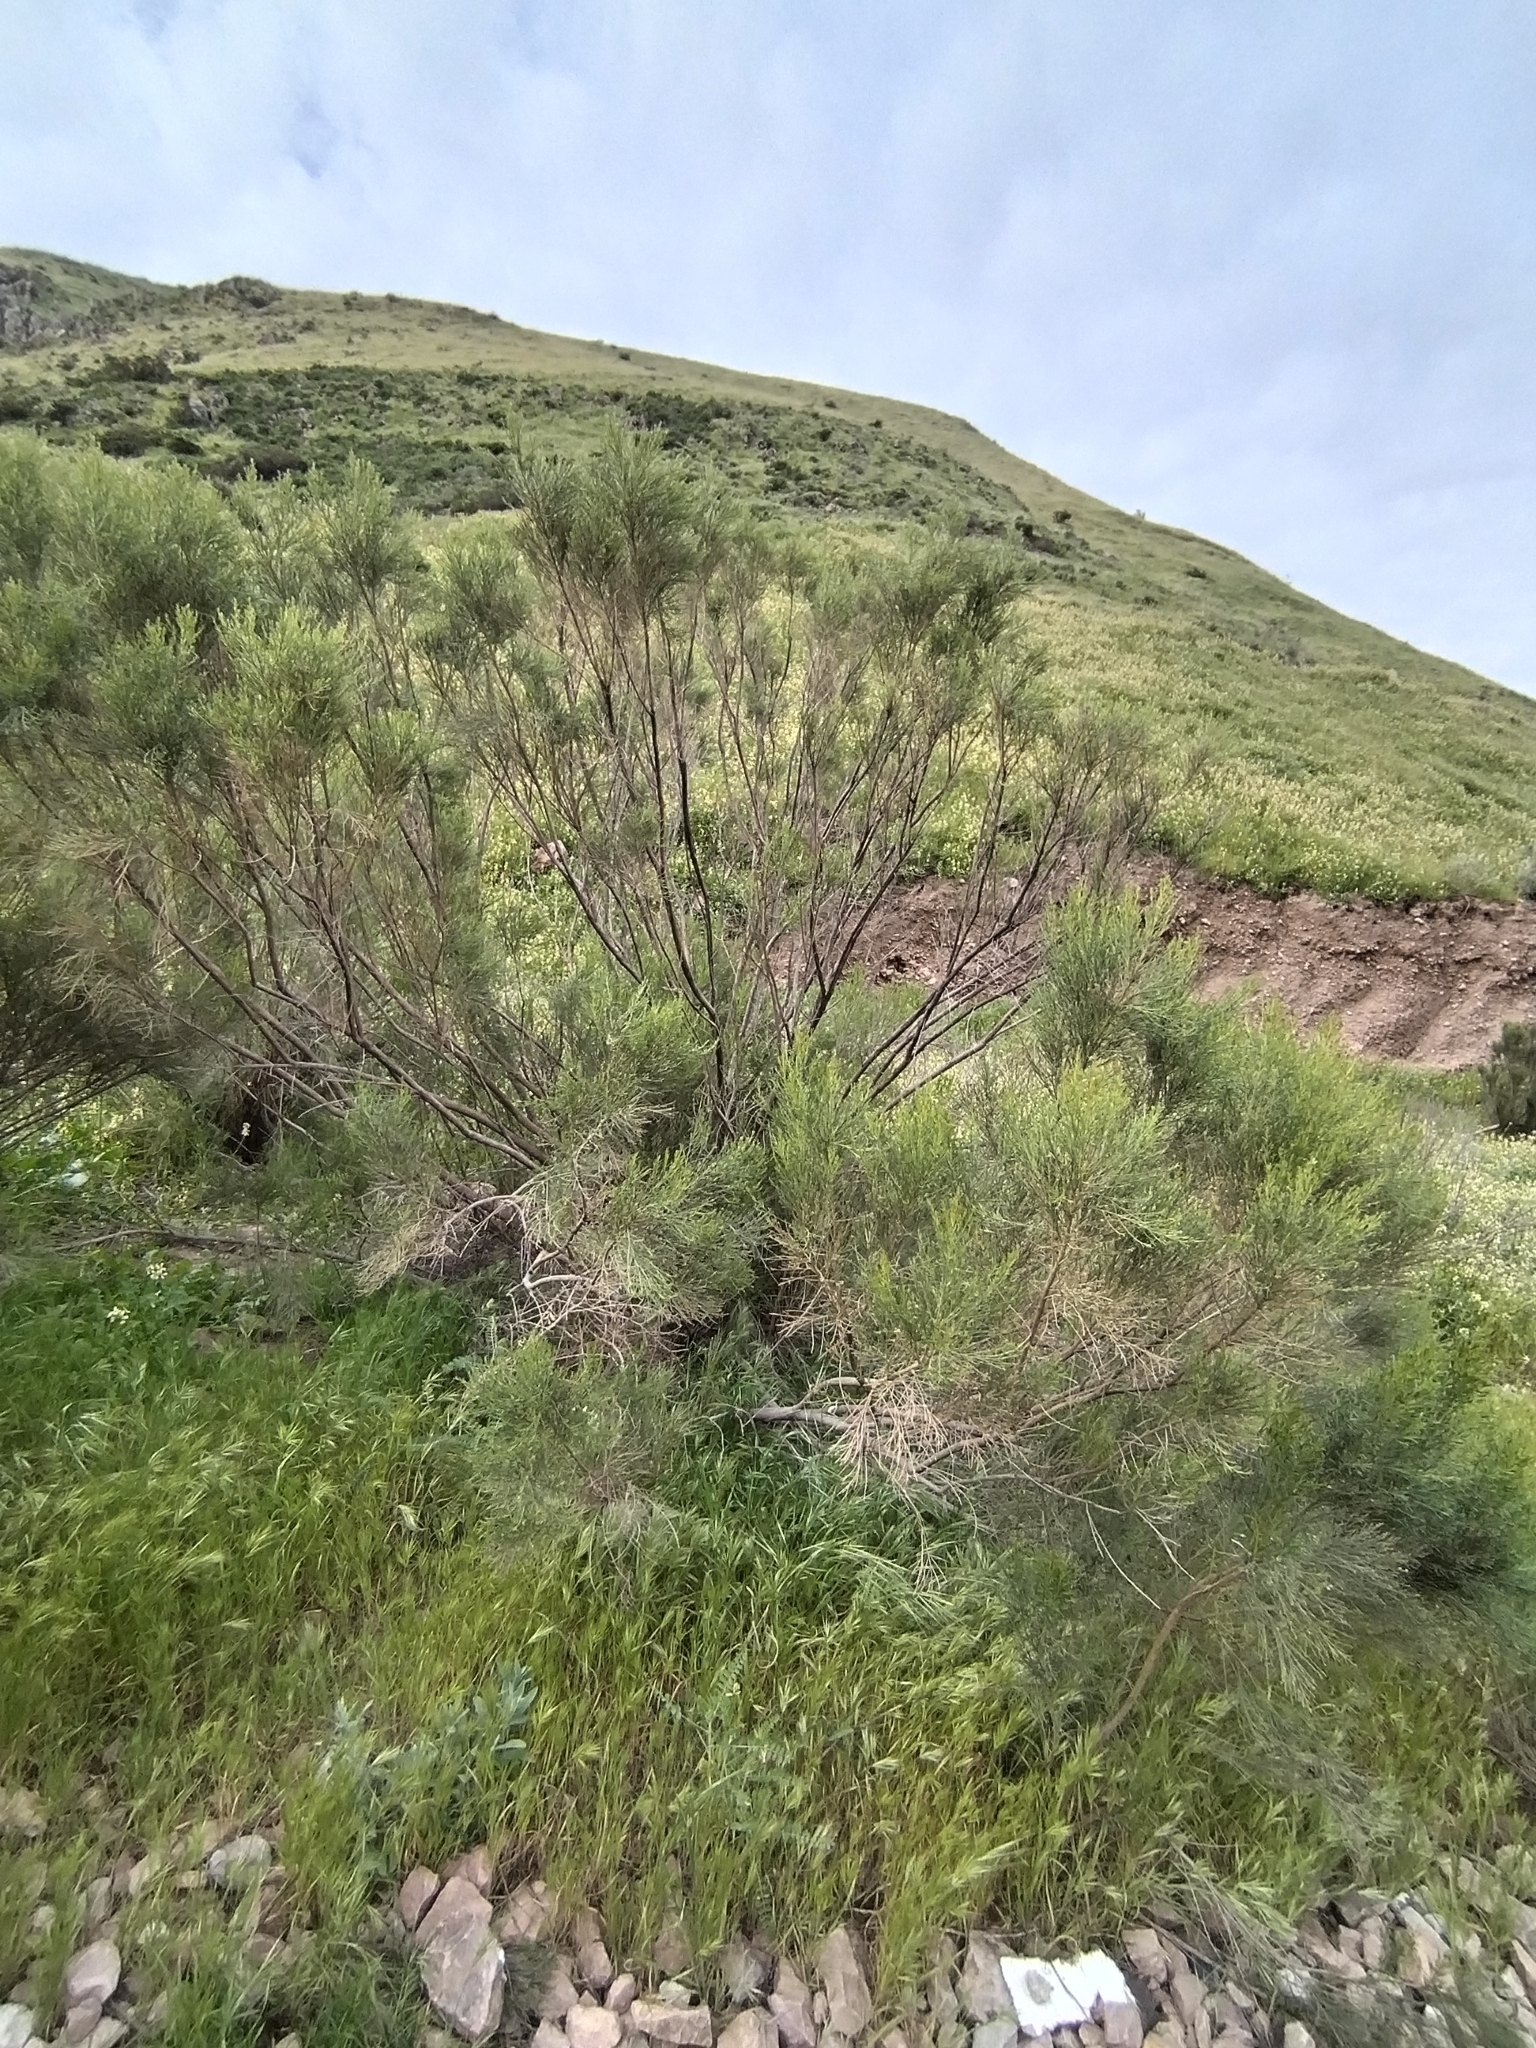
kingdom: Plantae
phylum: Tracheophyta
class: Magnoliopsida
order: Asterales
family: Asteraceae
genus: Baccharis
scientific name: Baccharis sarothroides
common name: Desert-broom
